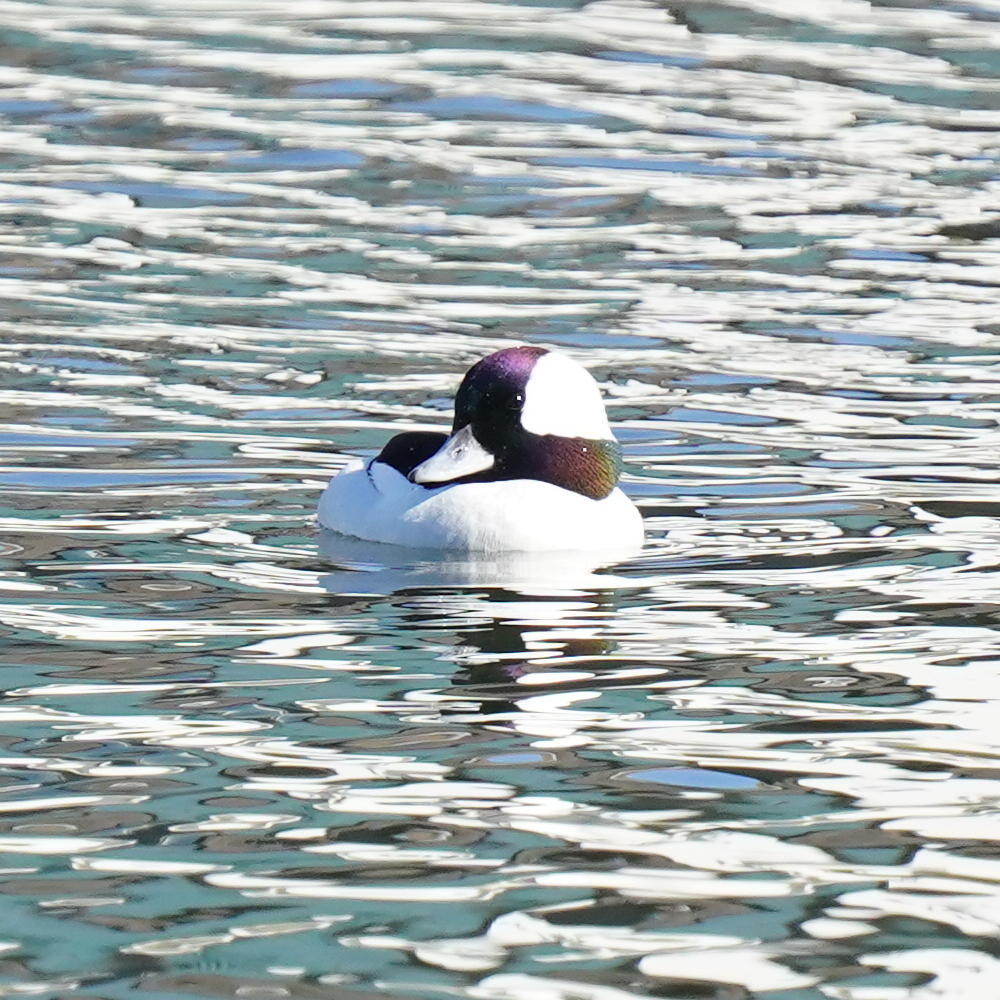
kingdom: Animalia
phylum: Chordata
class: Aves
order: Anseriformes
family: Anatidae
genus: Bucephala
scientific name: Bucephala albeola
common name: Bufflehead
